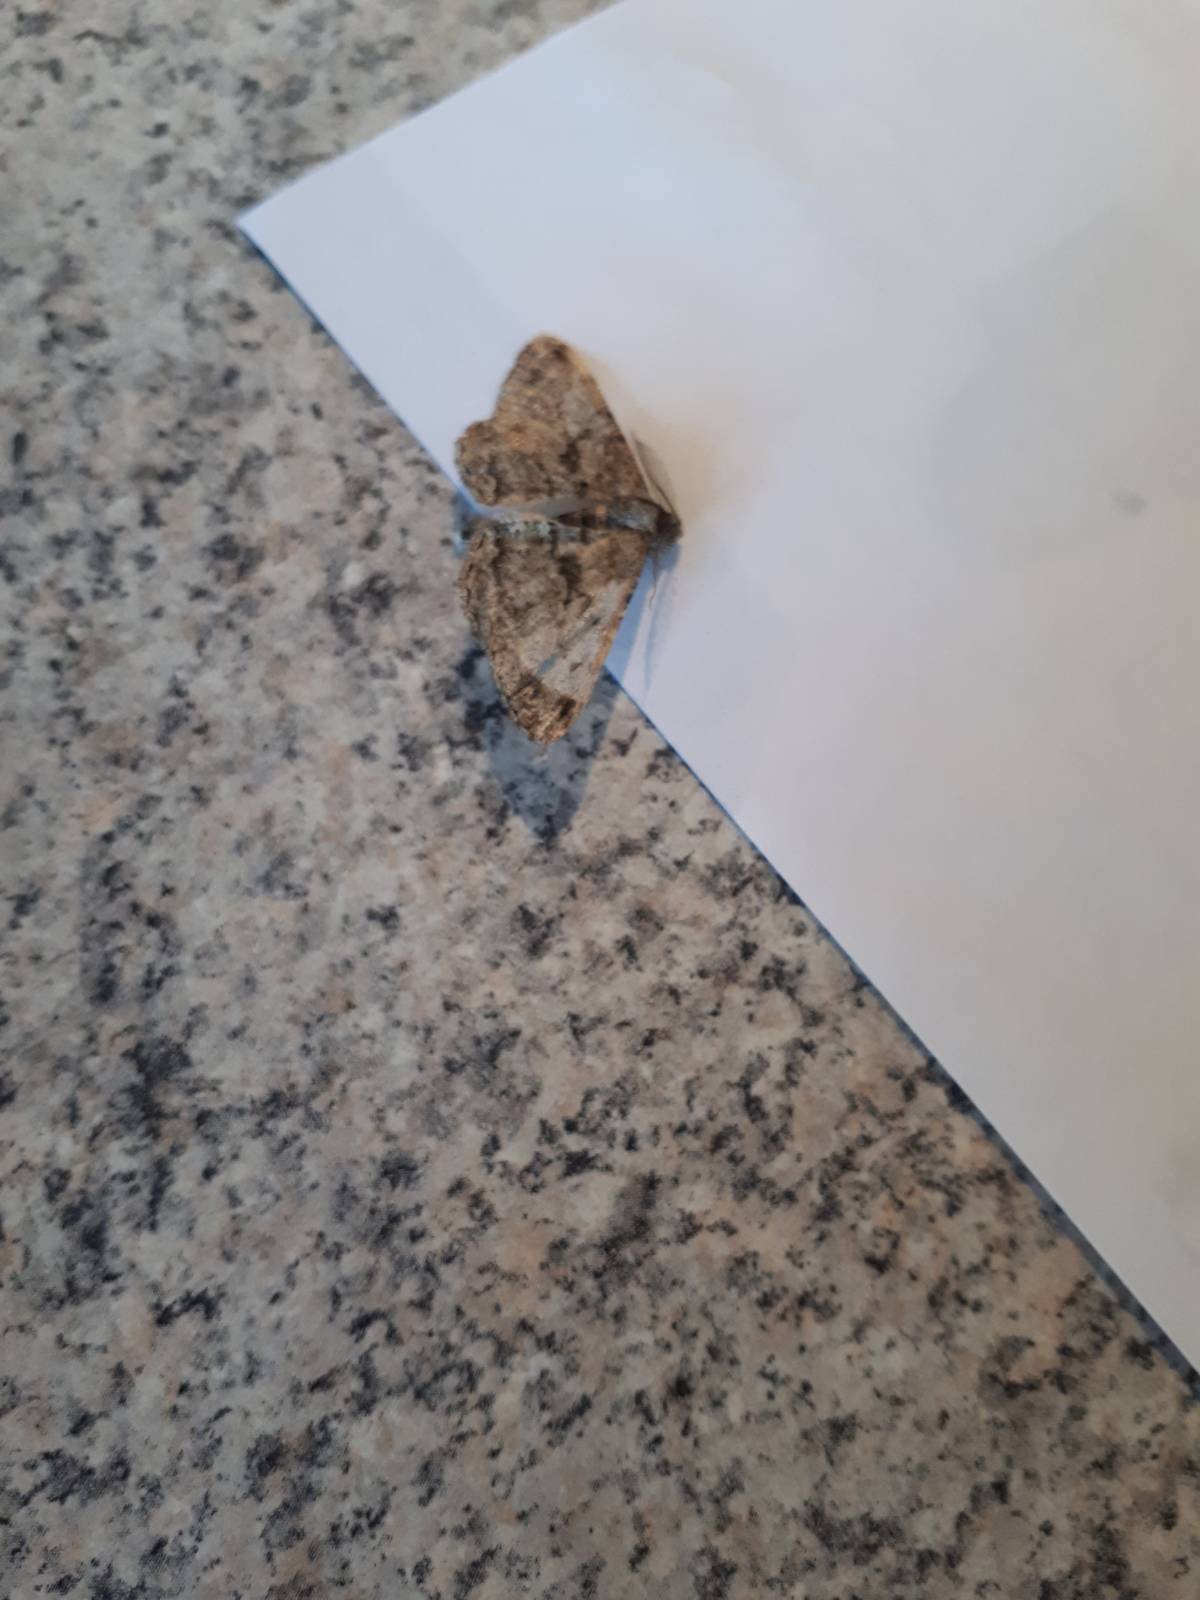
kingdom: Animalia
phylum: Arthropoda
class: Insecta
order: Lepidoptera
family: Geometridae
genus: Peribatodes
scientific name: Peribatodes rhomboidaria
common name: Willow beauty
